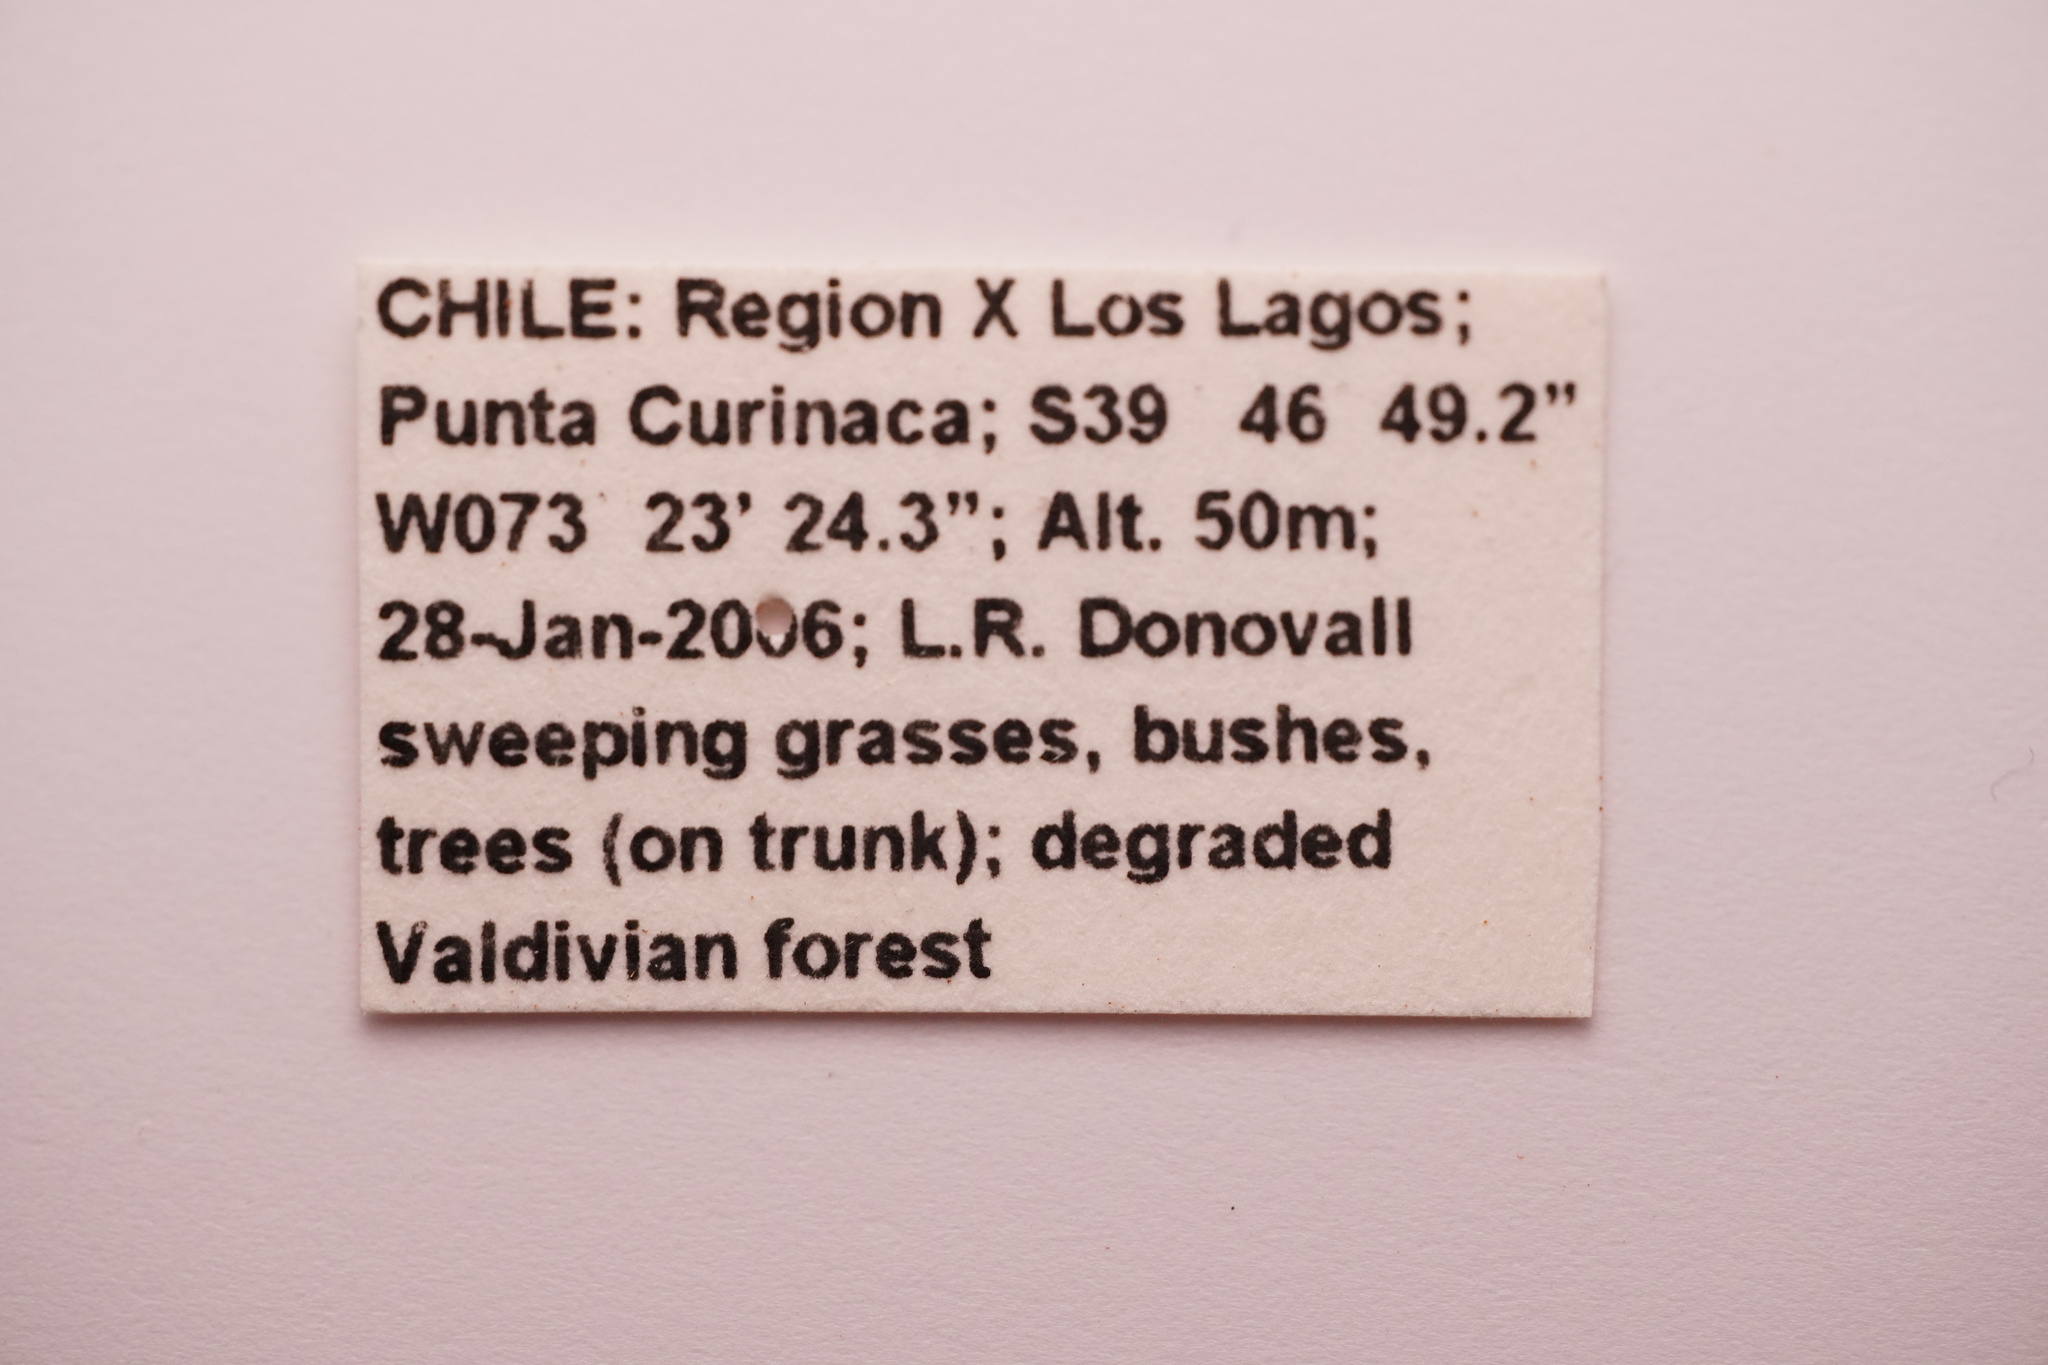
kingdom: Animalia
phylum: Arthropoda
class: Insecta
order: Coleoptera
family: Curculionidae
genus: Aegorhinus
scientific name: Aegorhinus
